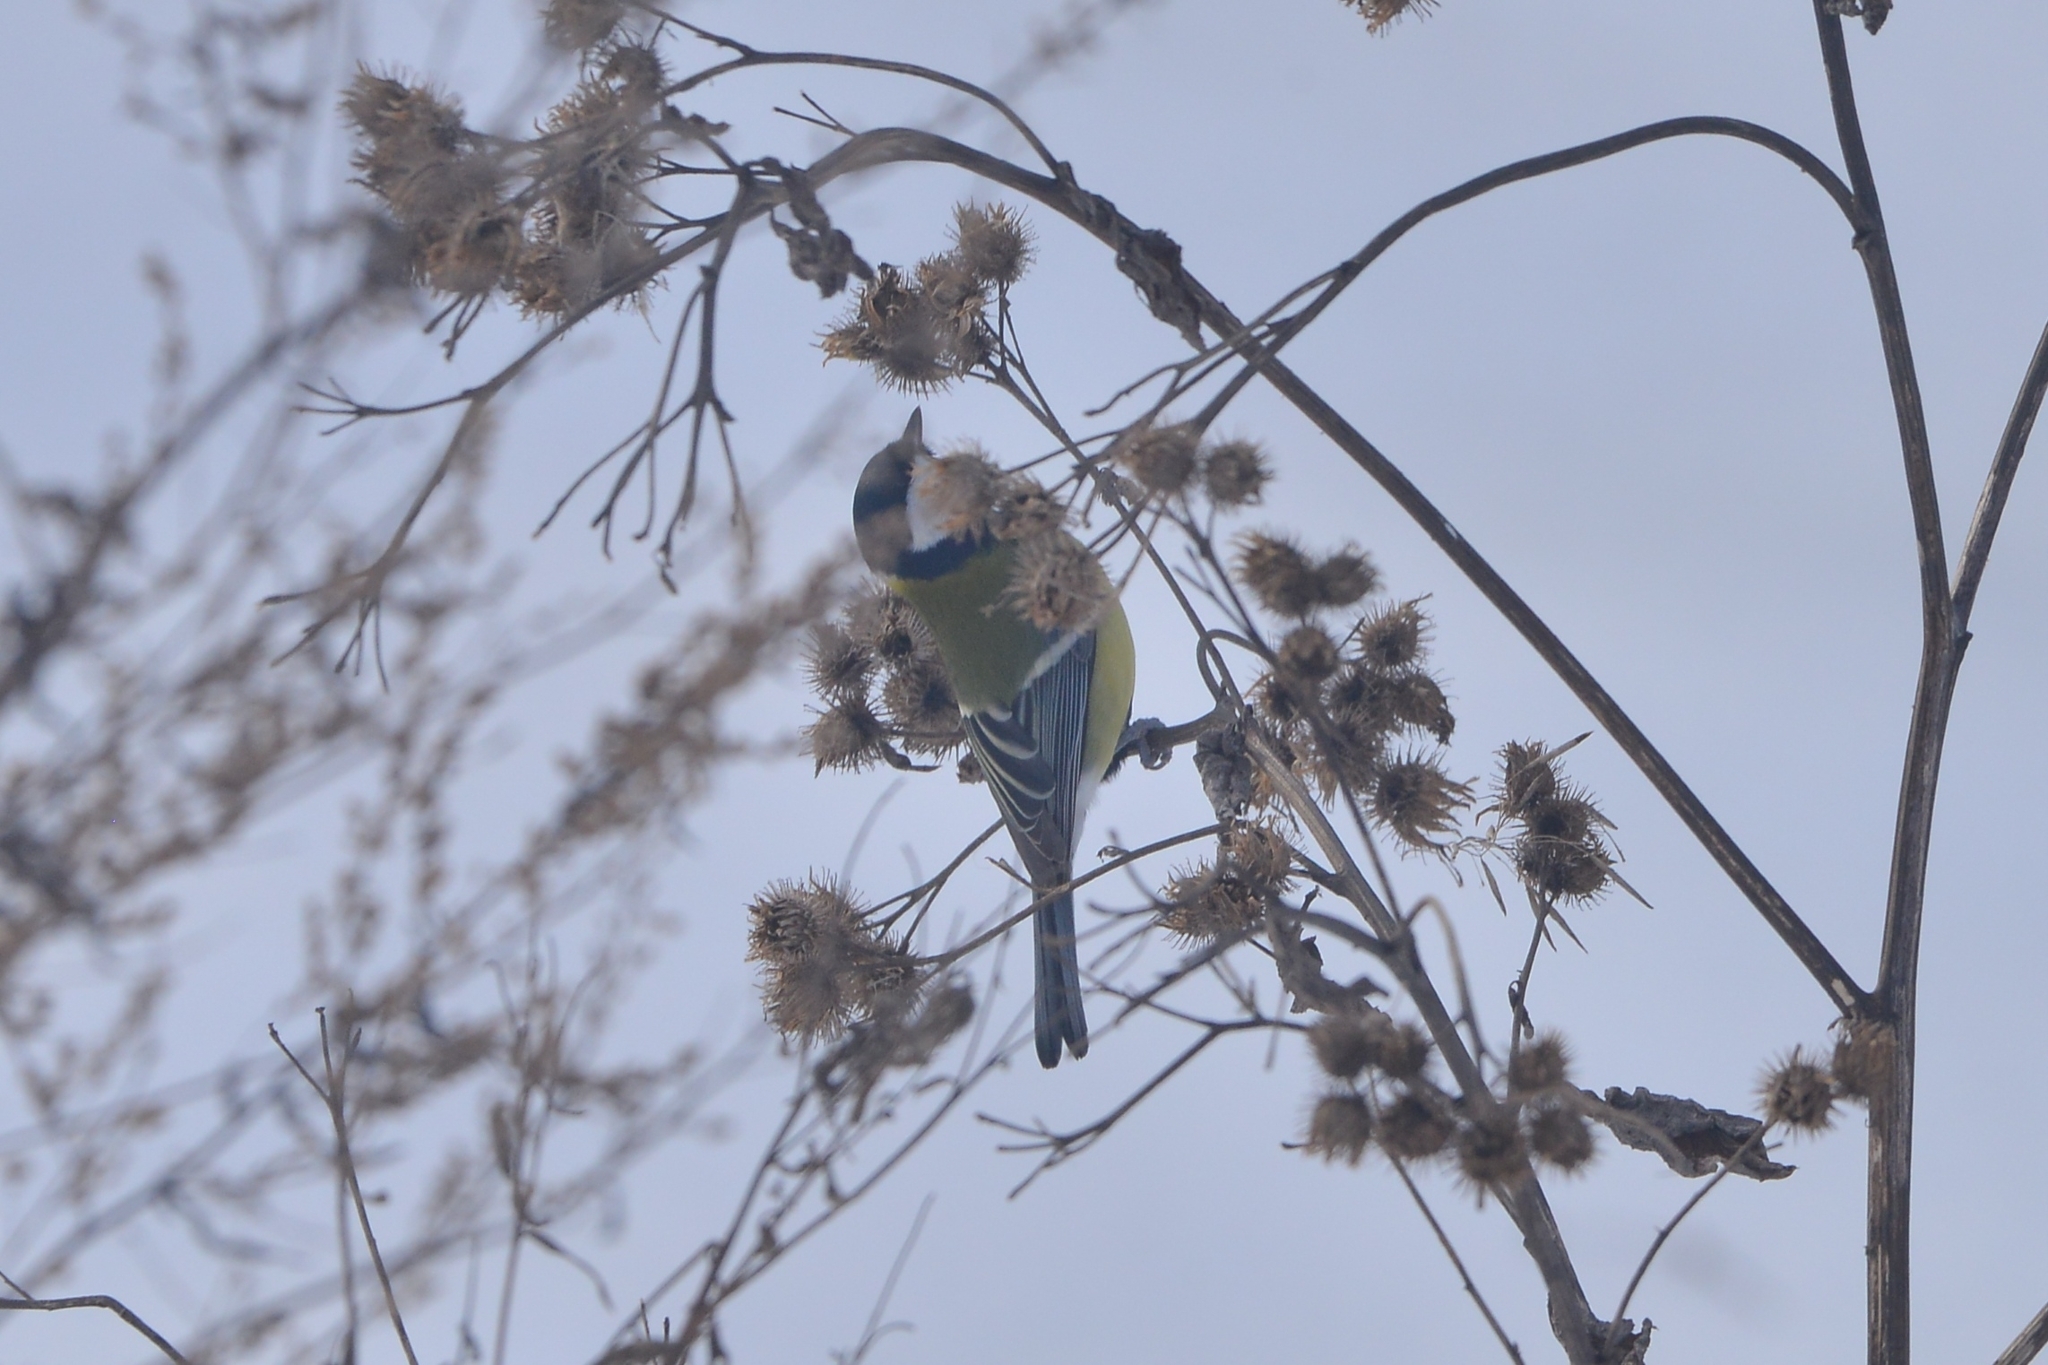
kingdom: Animalia
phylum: Chordata
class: Aves
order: Passeriformes
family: Paridae
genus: Parus
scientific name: Parus major
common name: Great tit
